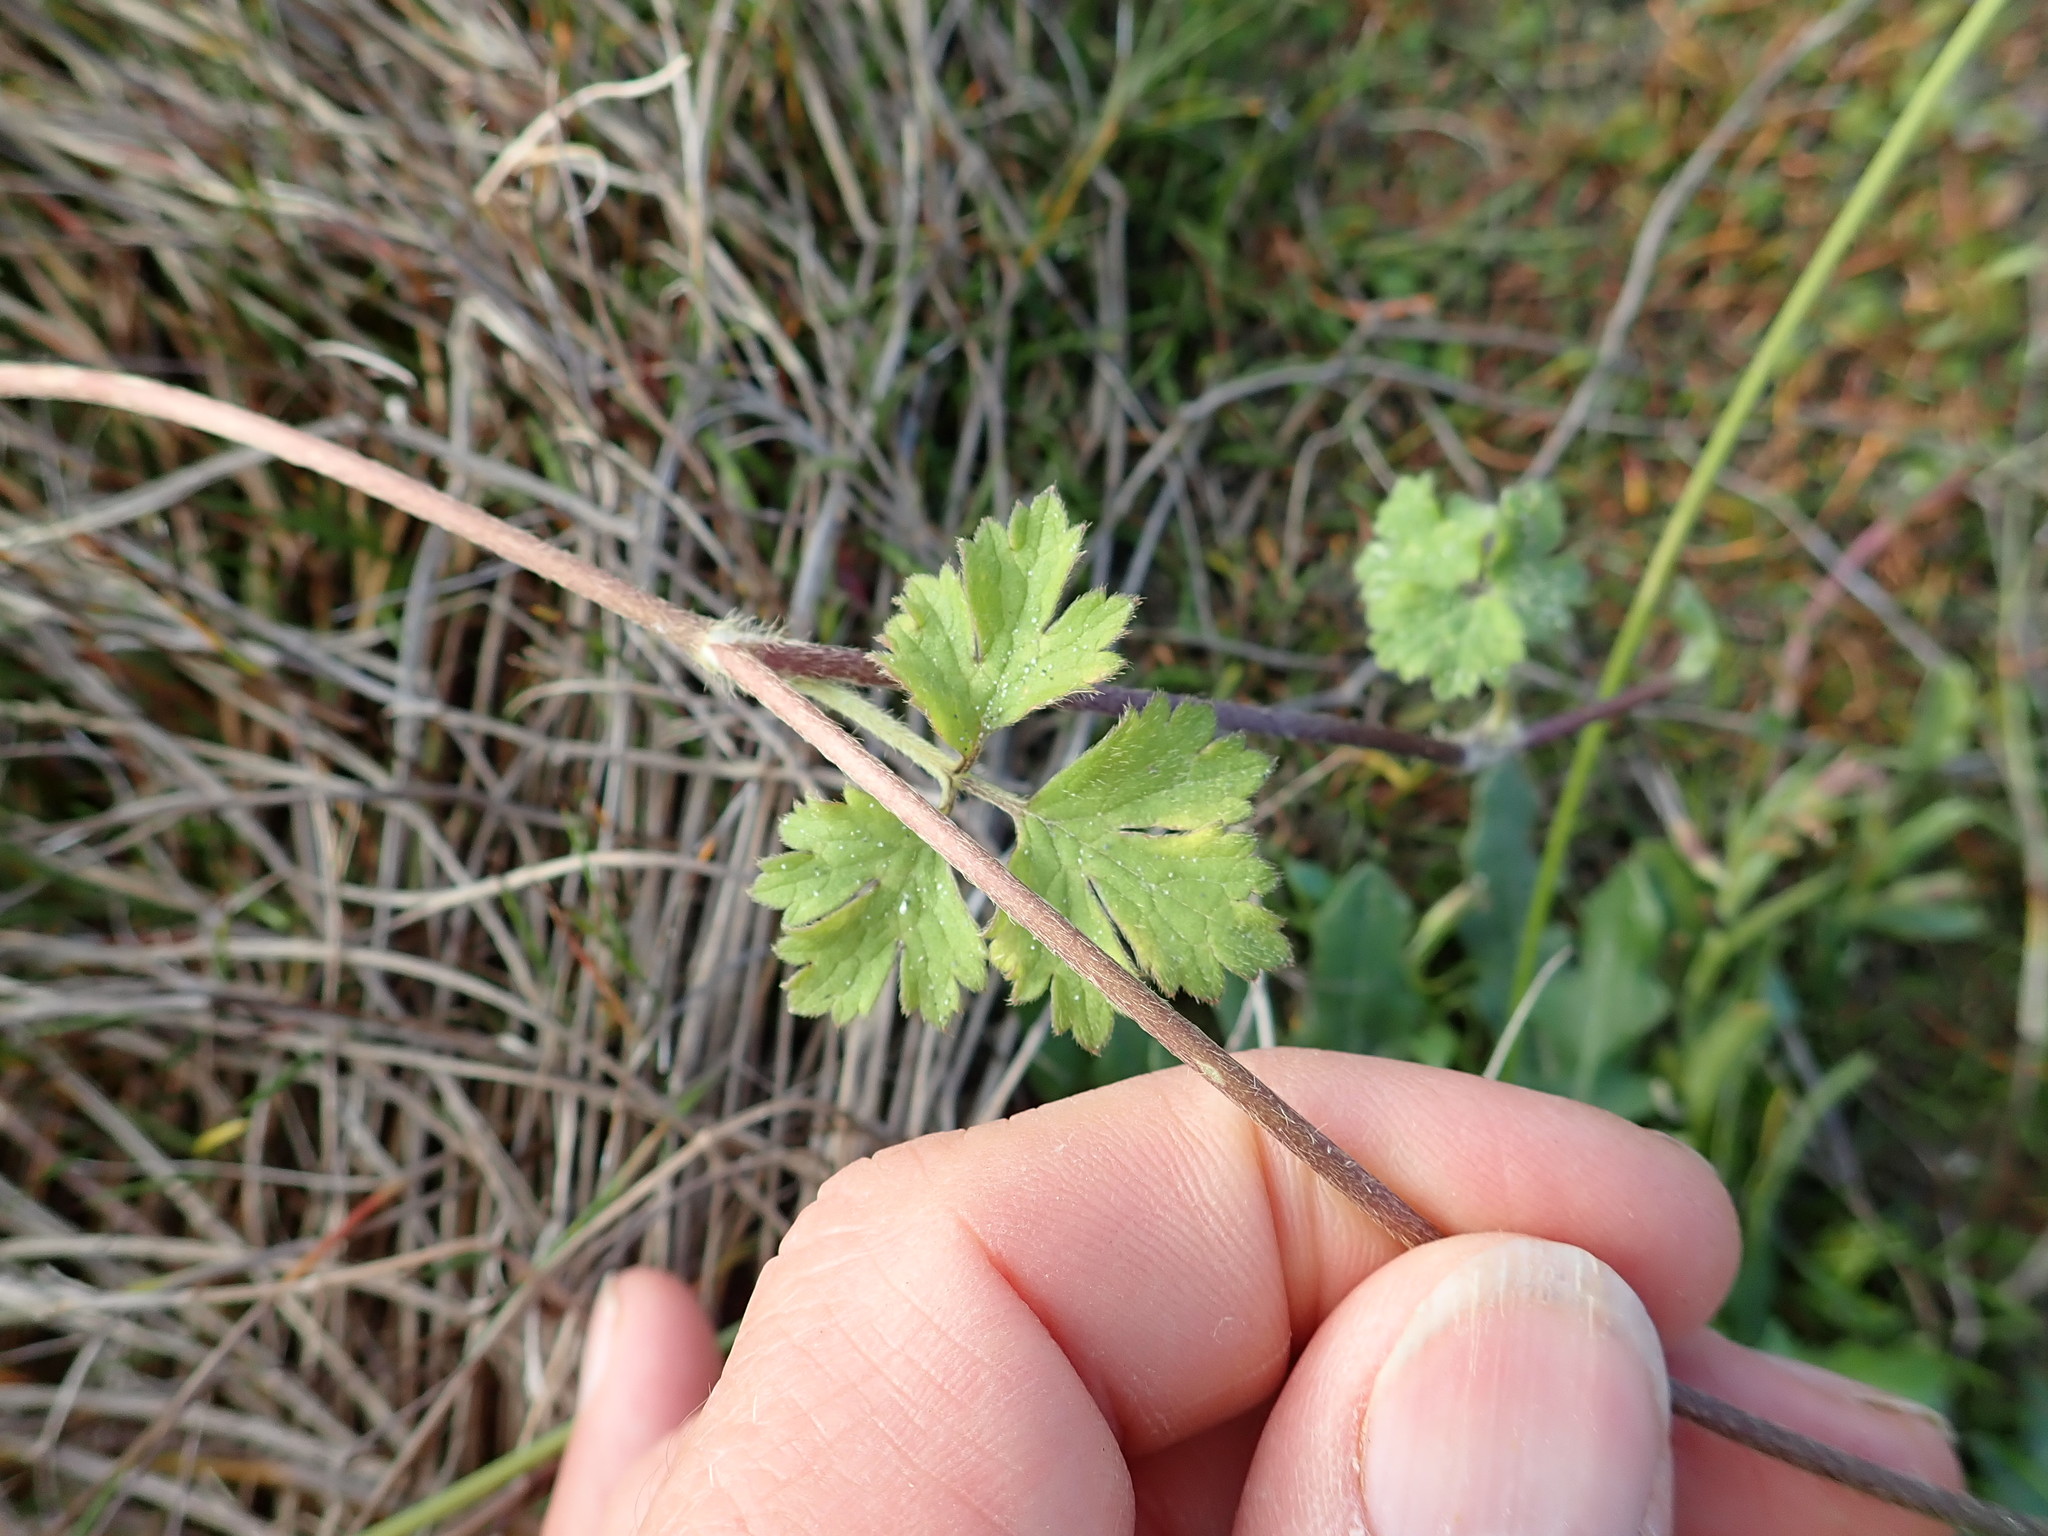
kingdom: Plantae
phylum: Tracheophyta
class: Magnoliopsida
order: Ranunculales
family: Ranunculaceae
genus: Ranunculus
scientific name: Ranunculus repens
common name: Creeping buttercup
